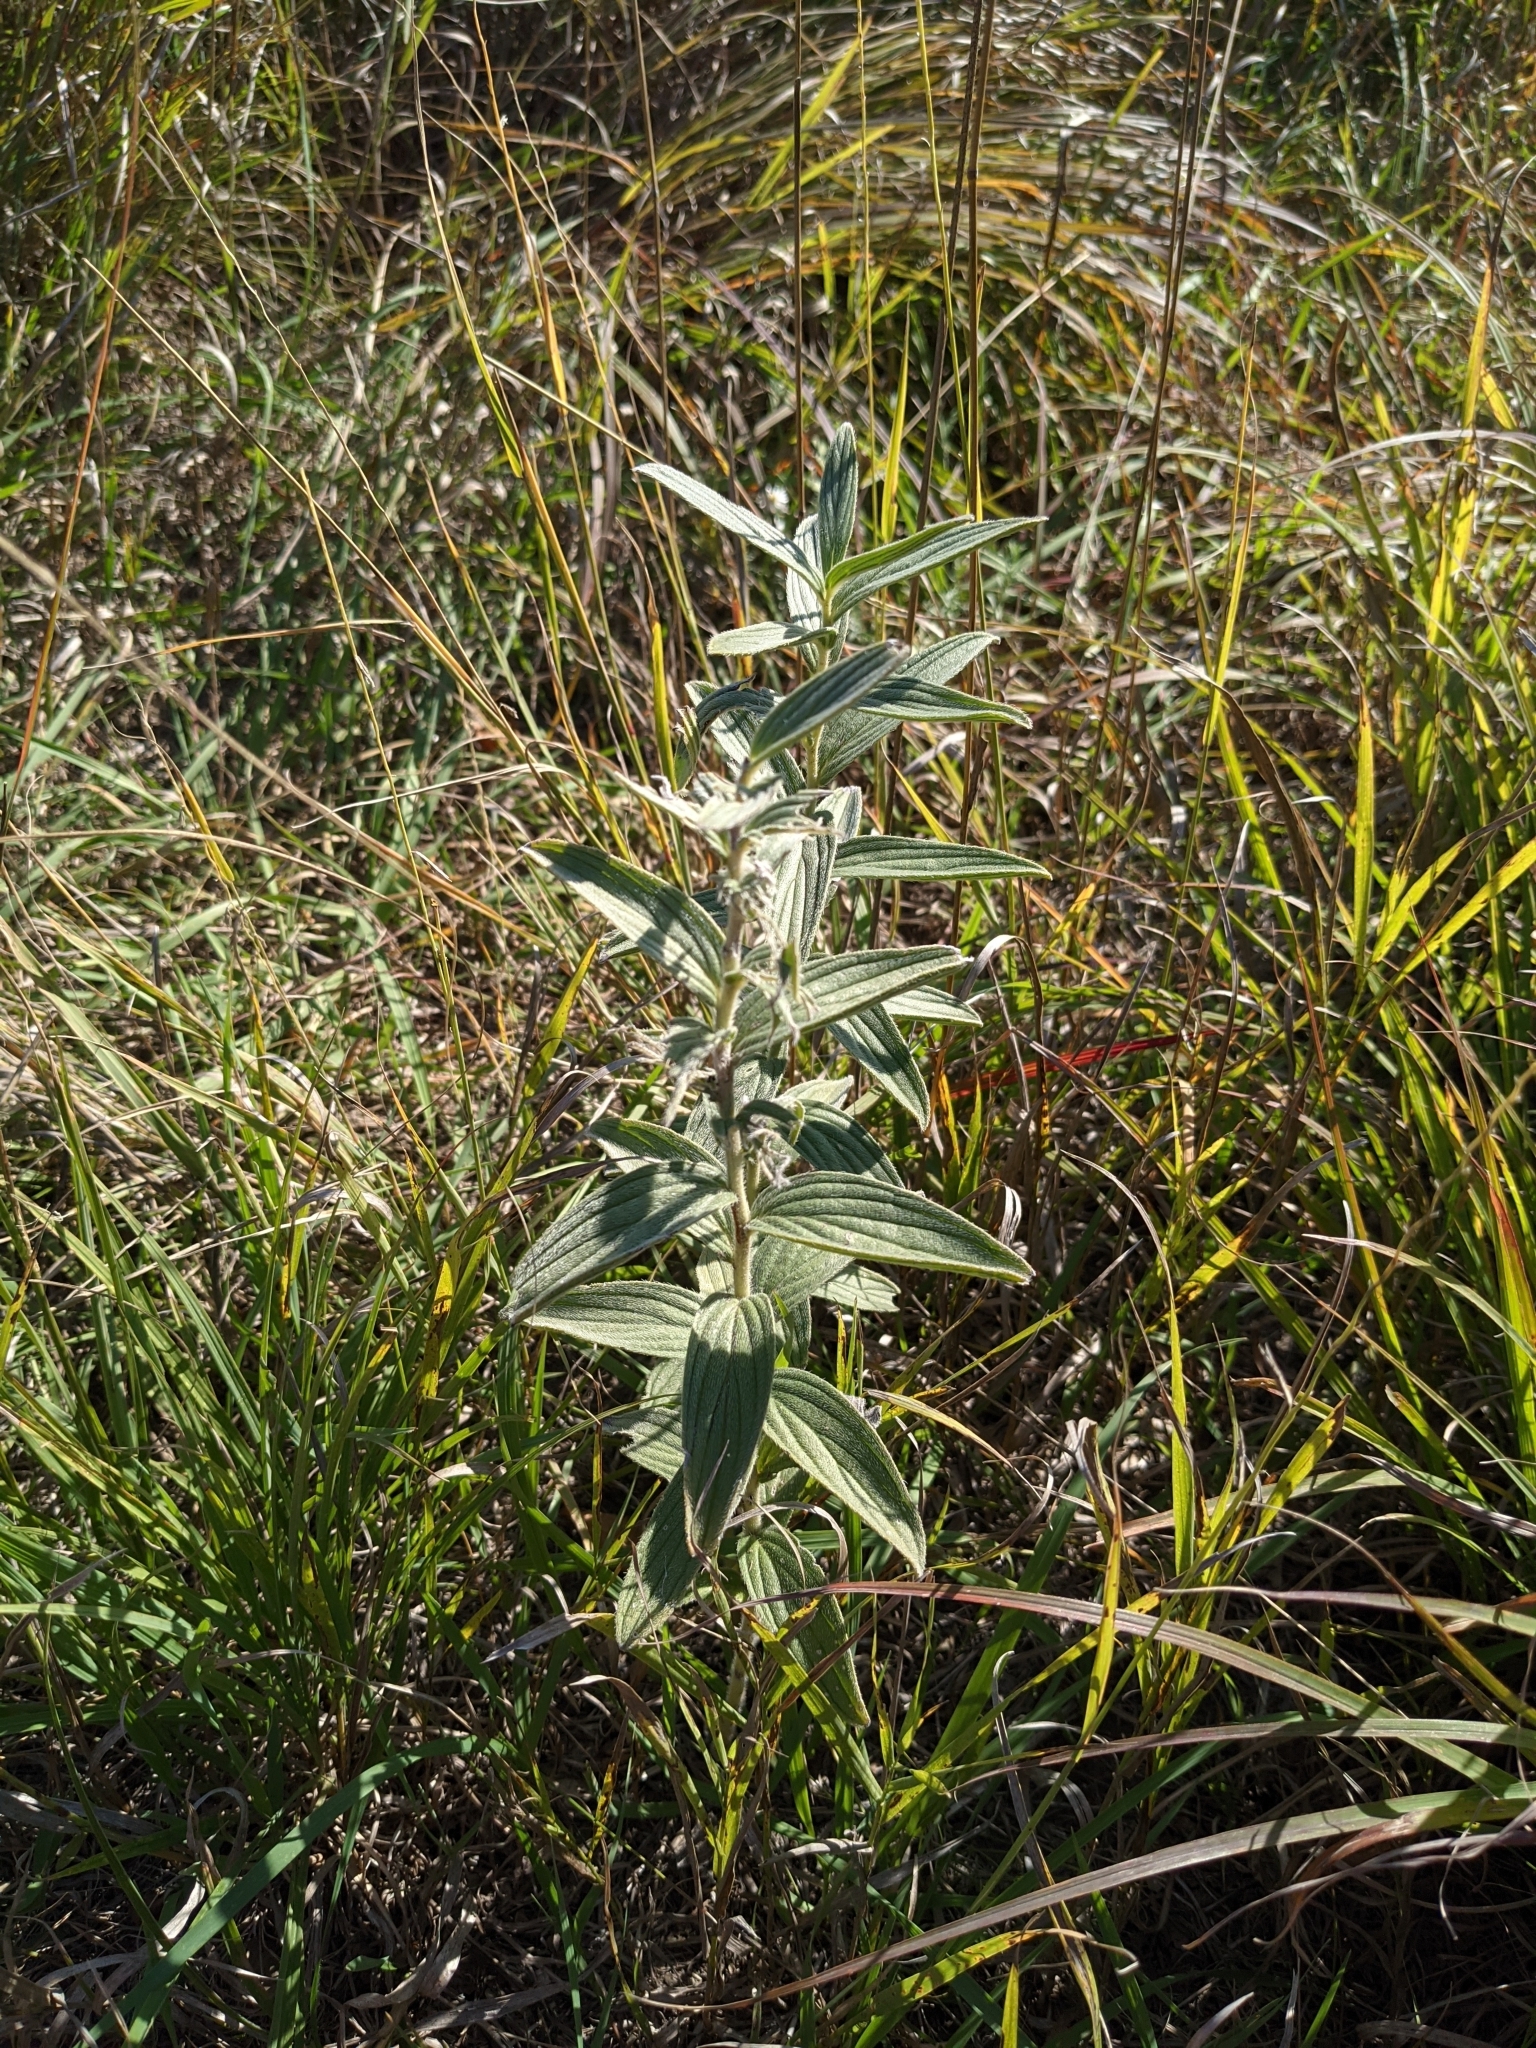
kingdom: Plantae
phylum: Tracheophyta
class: Magnoliopsida
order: Boraginales
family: Boraginaceae
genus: Lithospermum
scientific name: Lithospermum occidentale
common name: Western false gromwell
